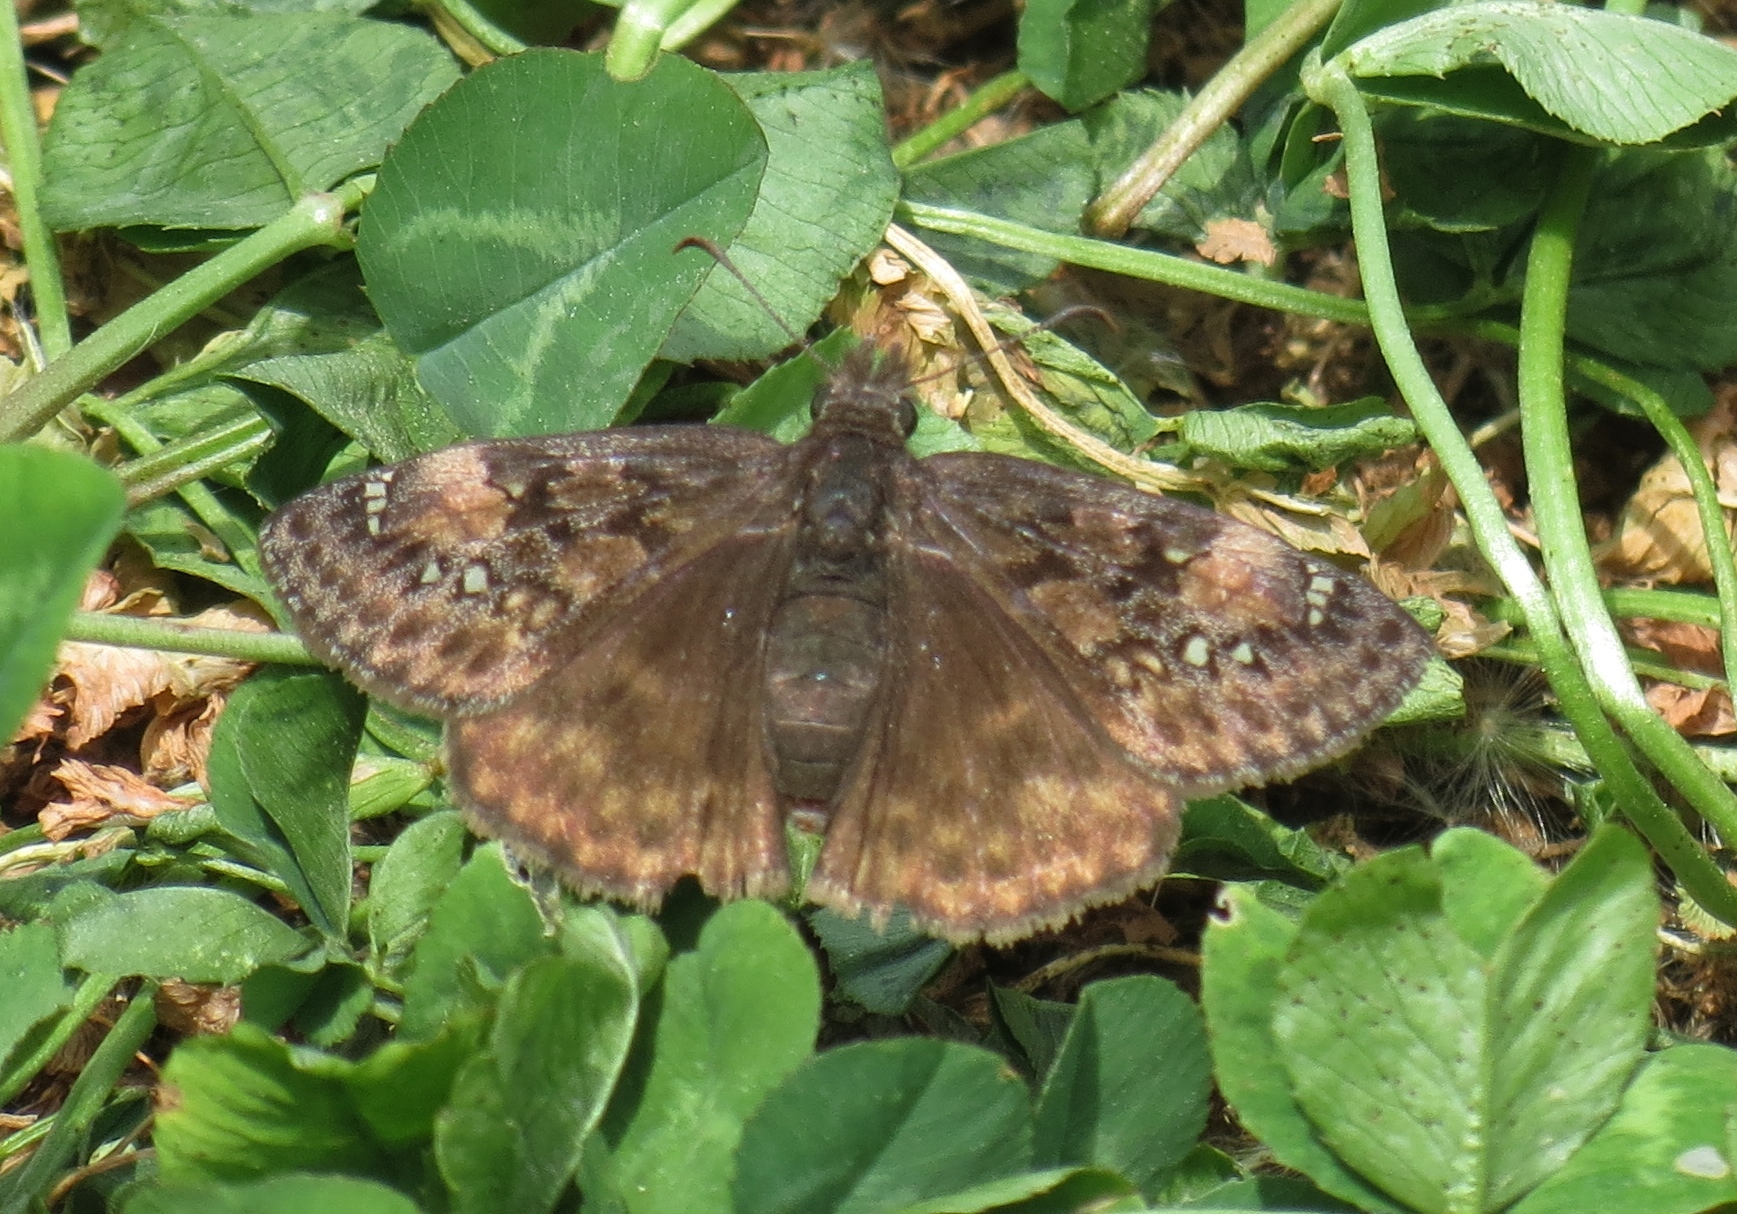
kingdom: Animalia
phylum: Arthropoda
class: Insecta
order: Lepidoptera
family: Hesperiidae
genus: Erynnis
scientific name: Erynnis juvenalis
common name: Juvenal's duskywing
